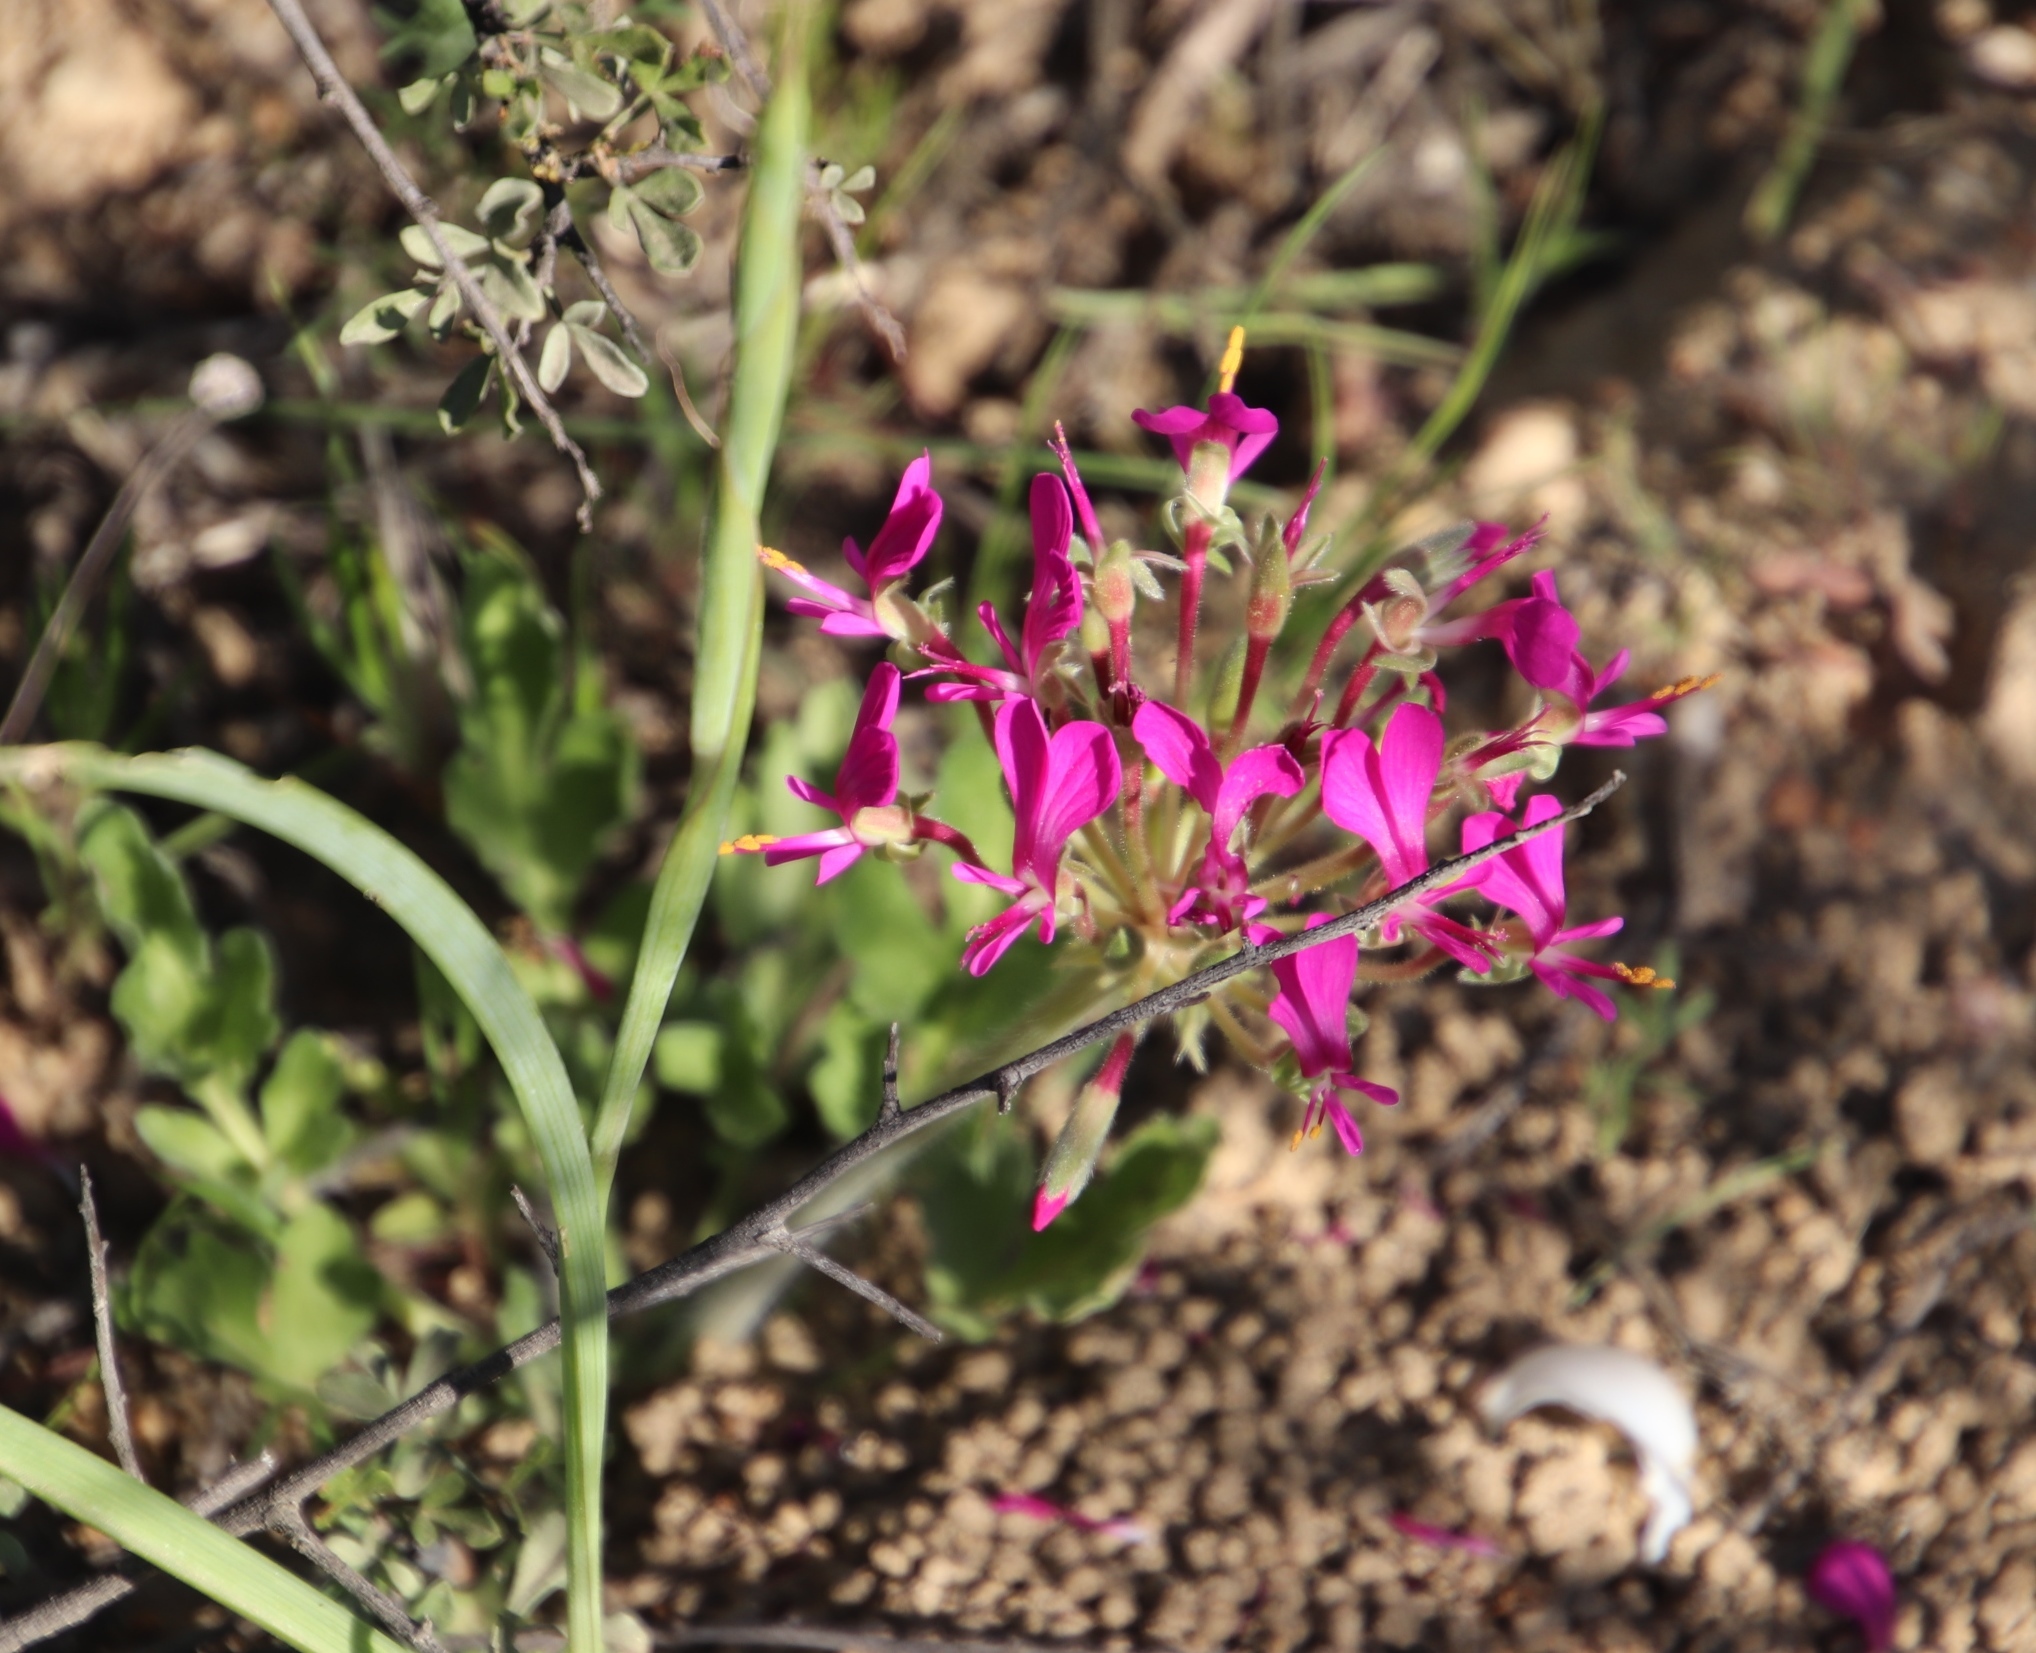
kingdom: Plantae
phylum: Tracheophyta
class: Magnoliopsida
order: Geraniales
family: Geraniaceae
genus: Pelargonium
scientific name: Pelargonium incrassatum
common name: Namaqualand beauty
